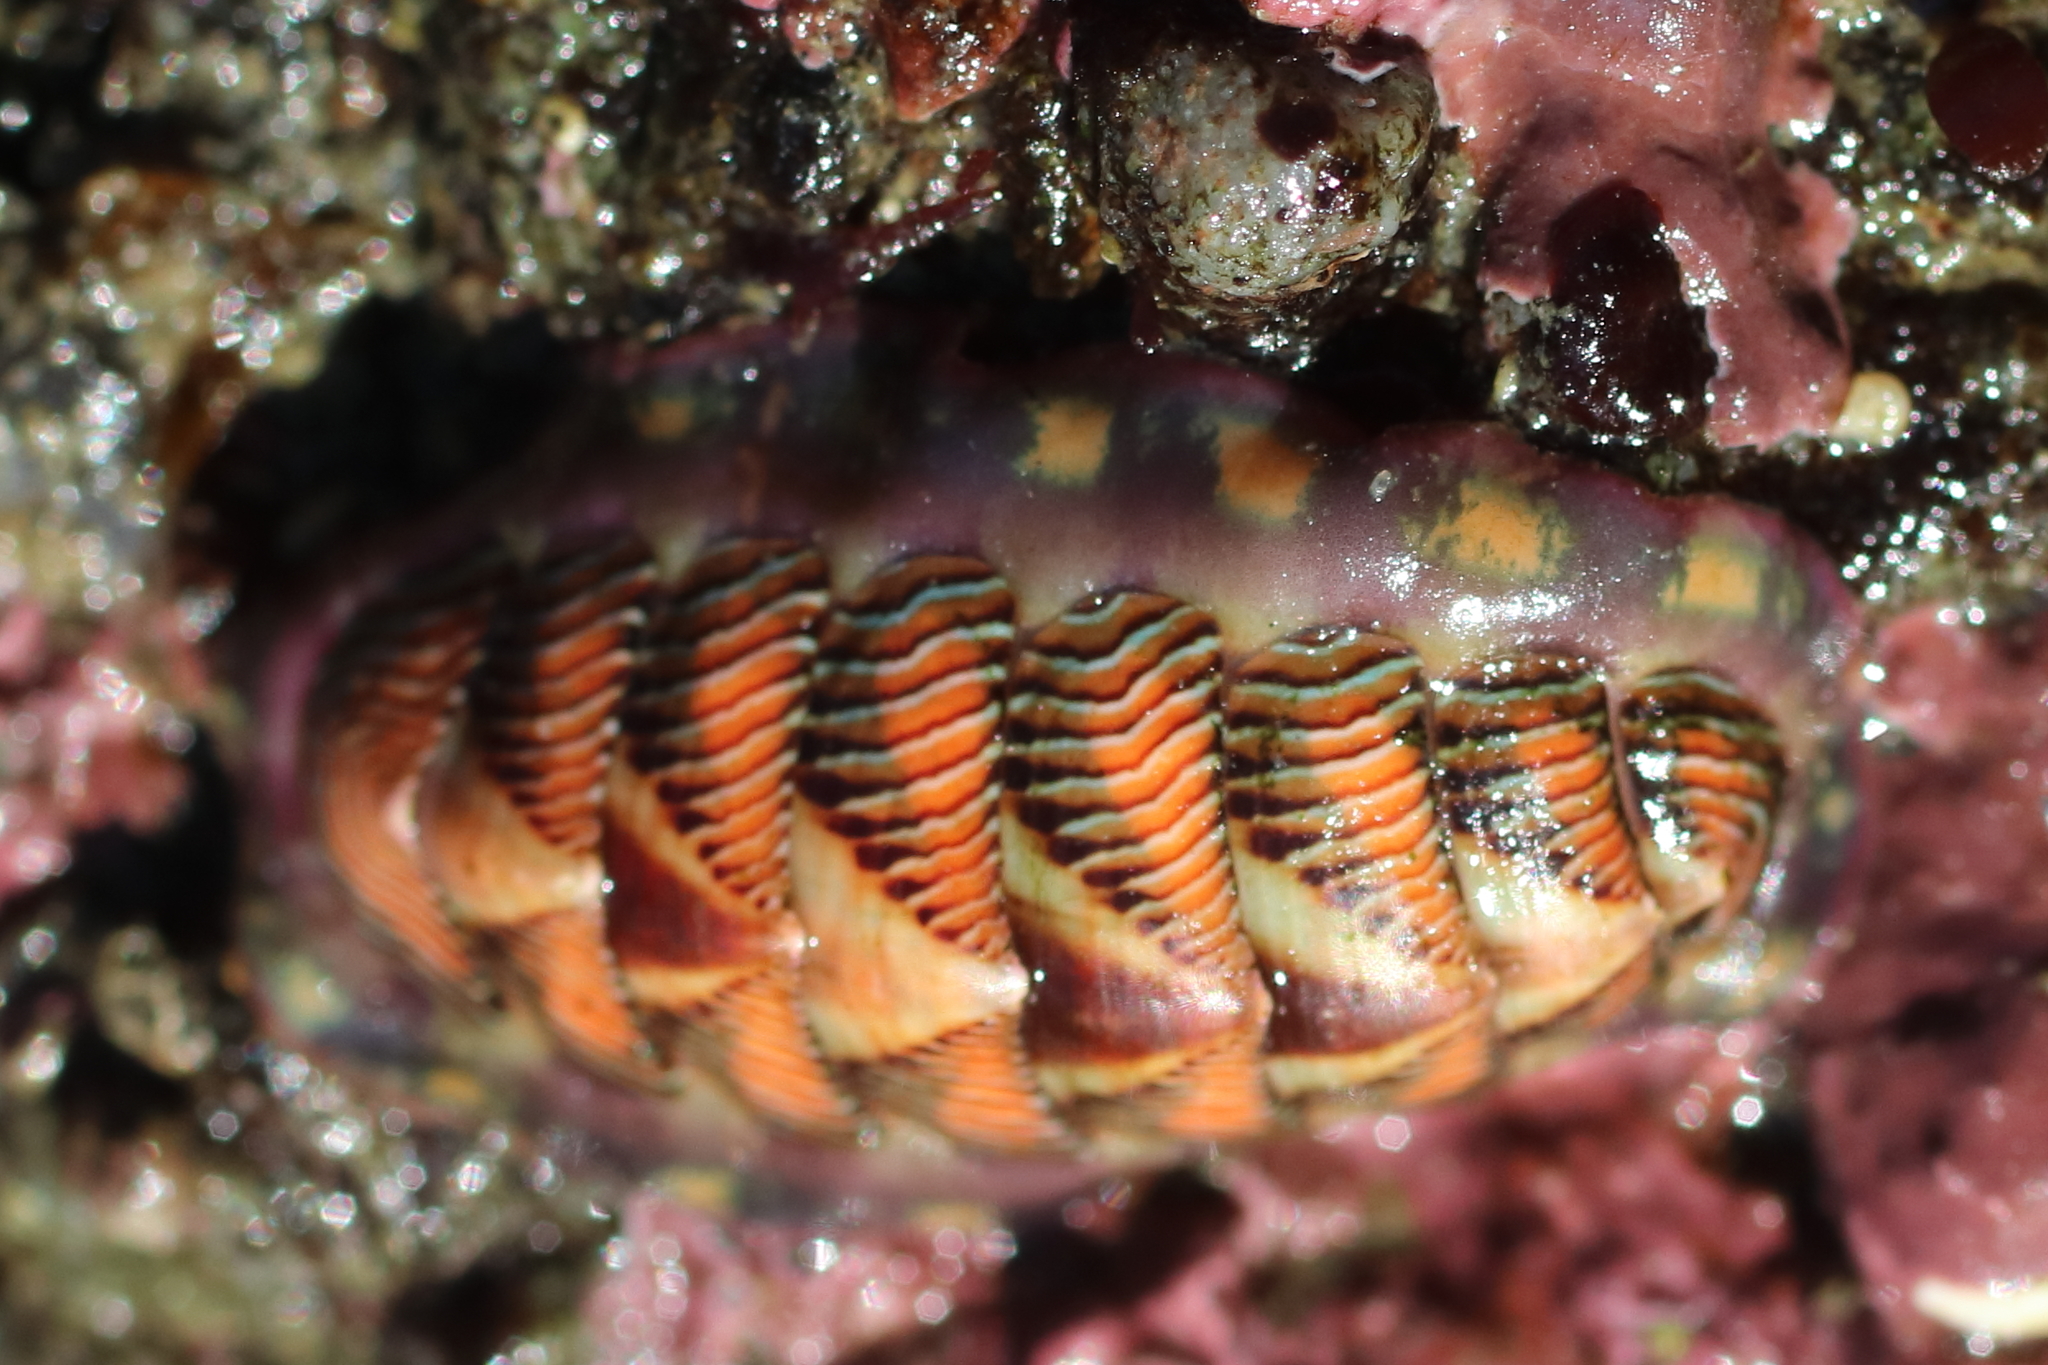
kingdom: Animalia
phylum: Mollusca
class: Polyplacophora
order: Chitonida
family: Tonicellidae
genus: Tonicella
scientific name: Tonicella lineata
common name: Lined chiton
